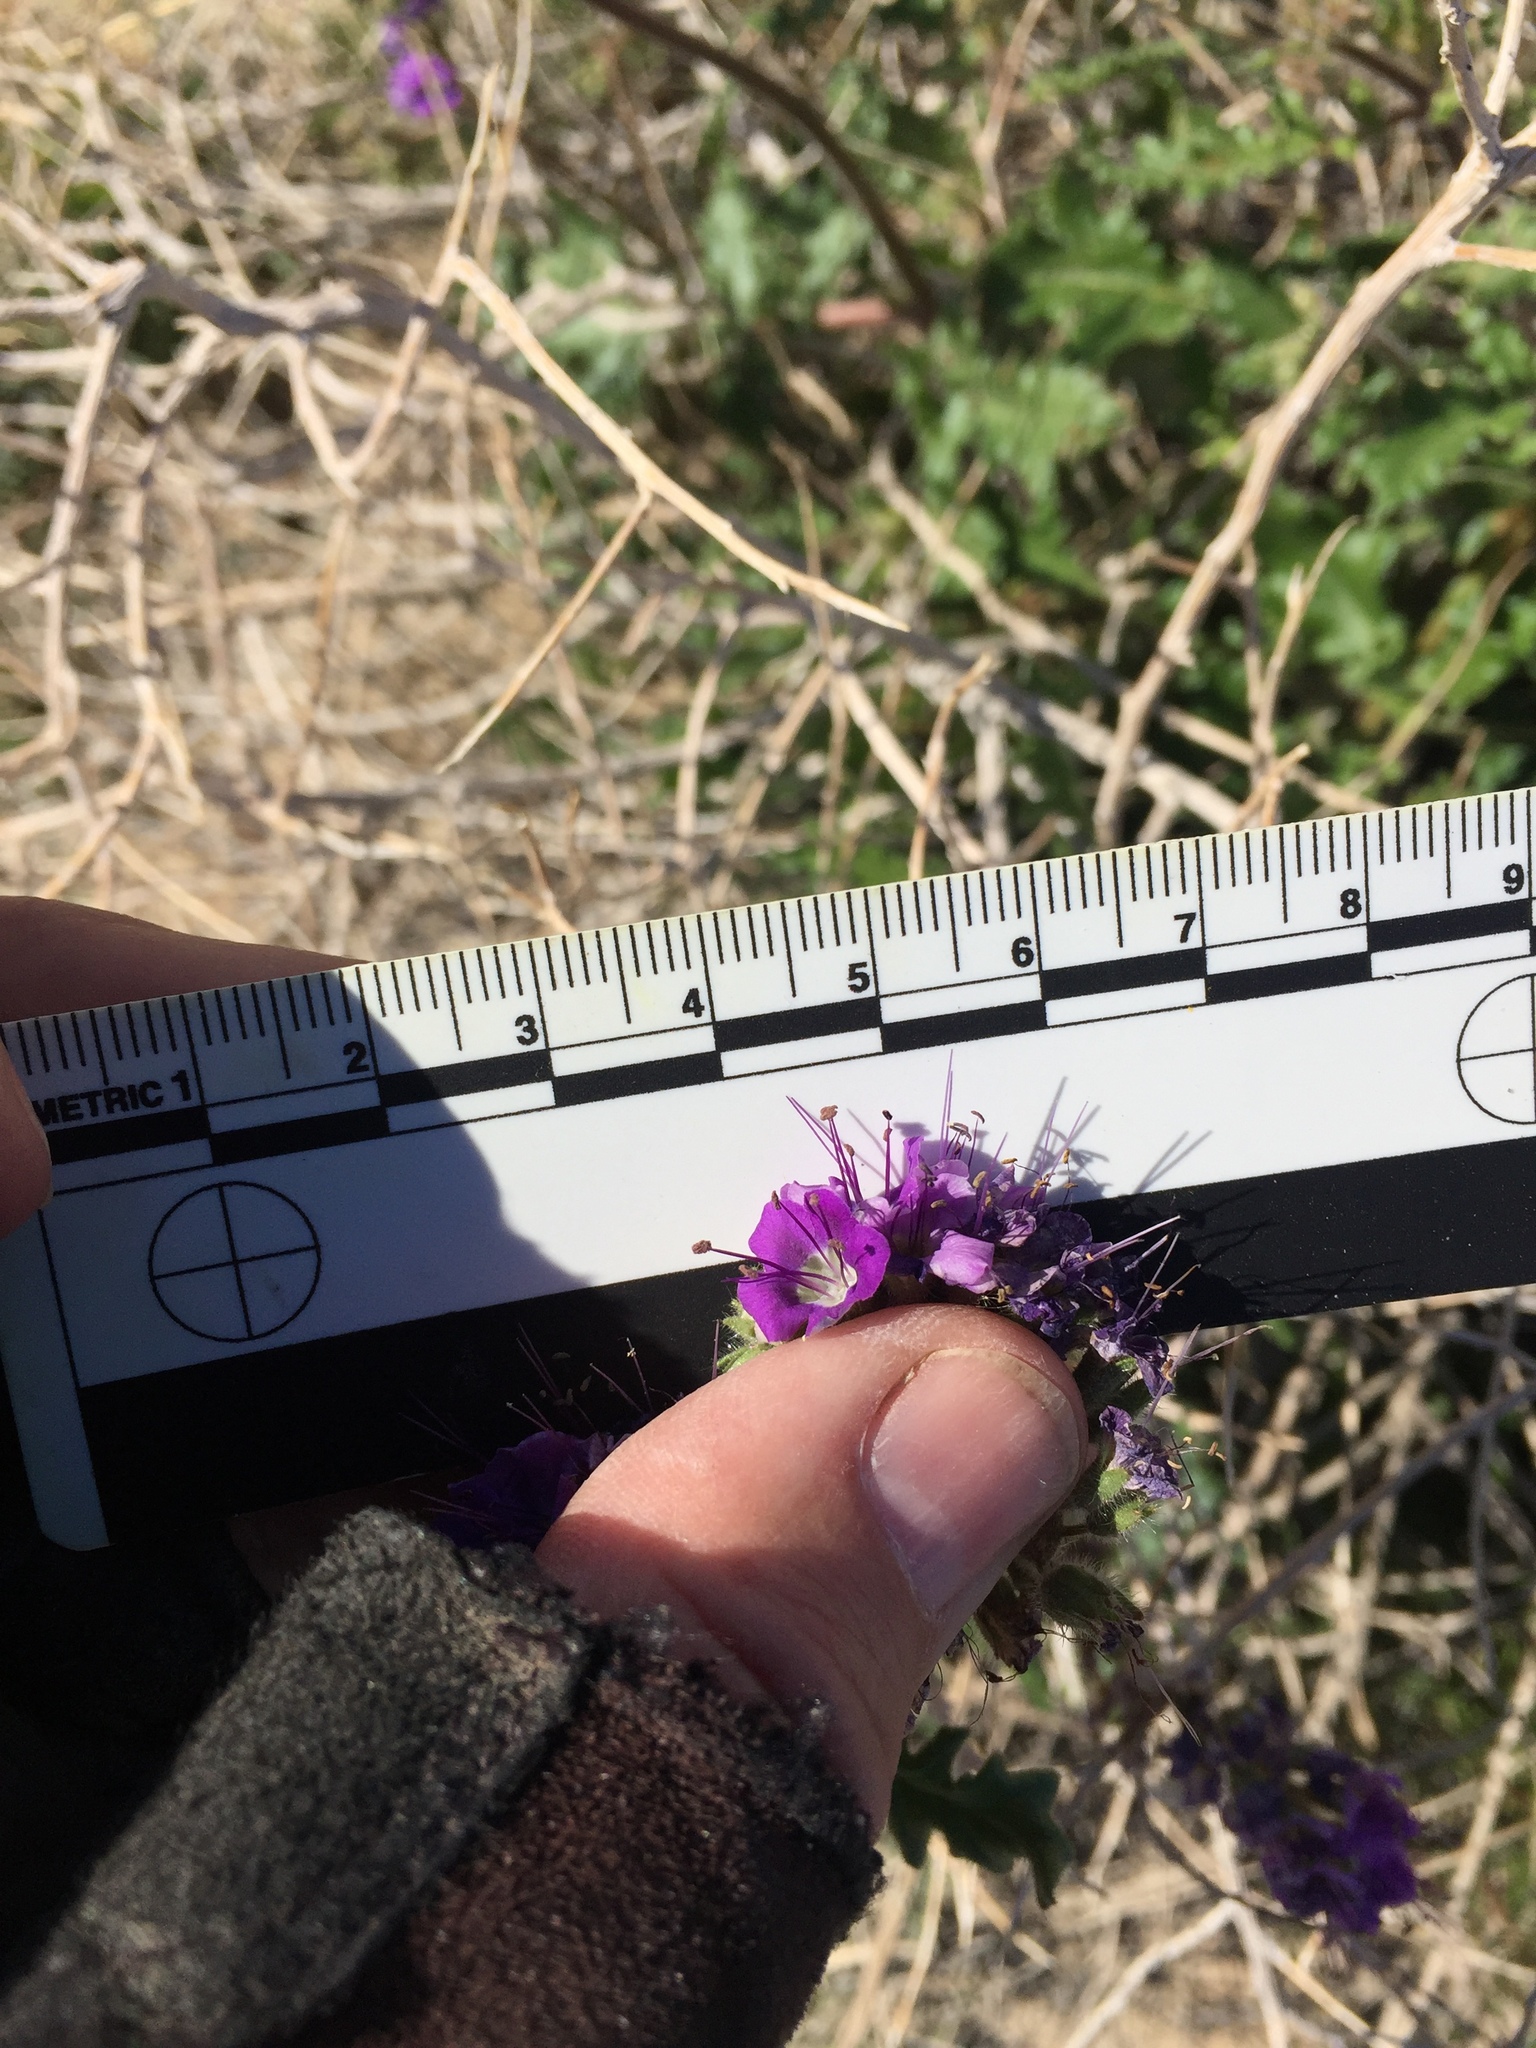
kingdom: Plantae
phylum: Tracheophyta
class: Magnoliopsida
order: Boraginales
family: Hydrophyllaceae
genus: Phacelia
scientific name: Phacelia crenulata
